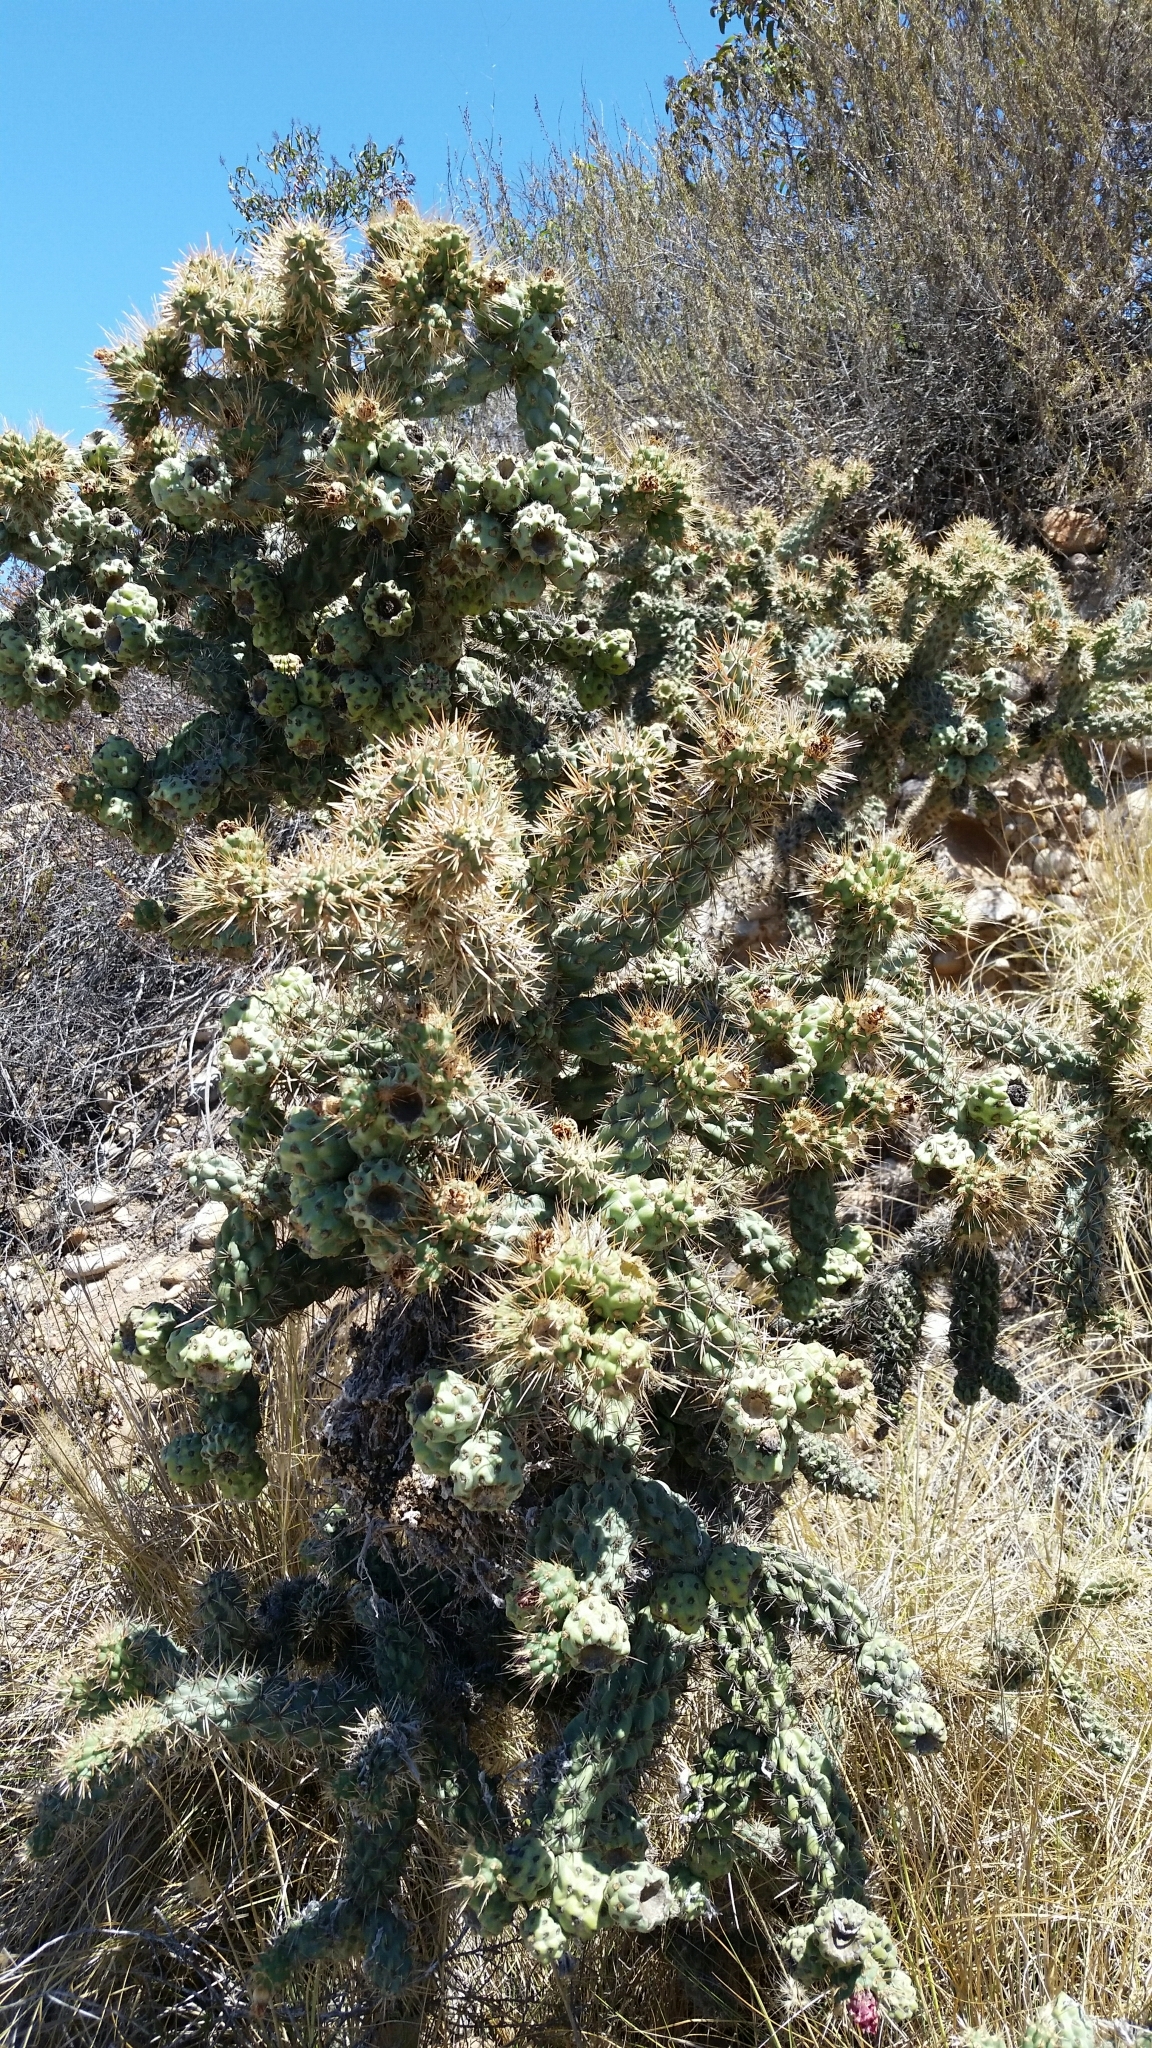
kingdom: Plantae
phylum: Tracheophyta
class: Magnoliopsida
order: Caryophyllales
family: Cactaceae
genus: Cylindropuntia
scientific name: Cylindropuntia prolifera
